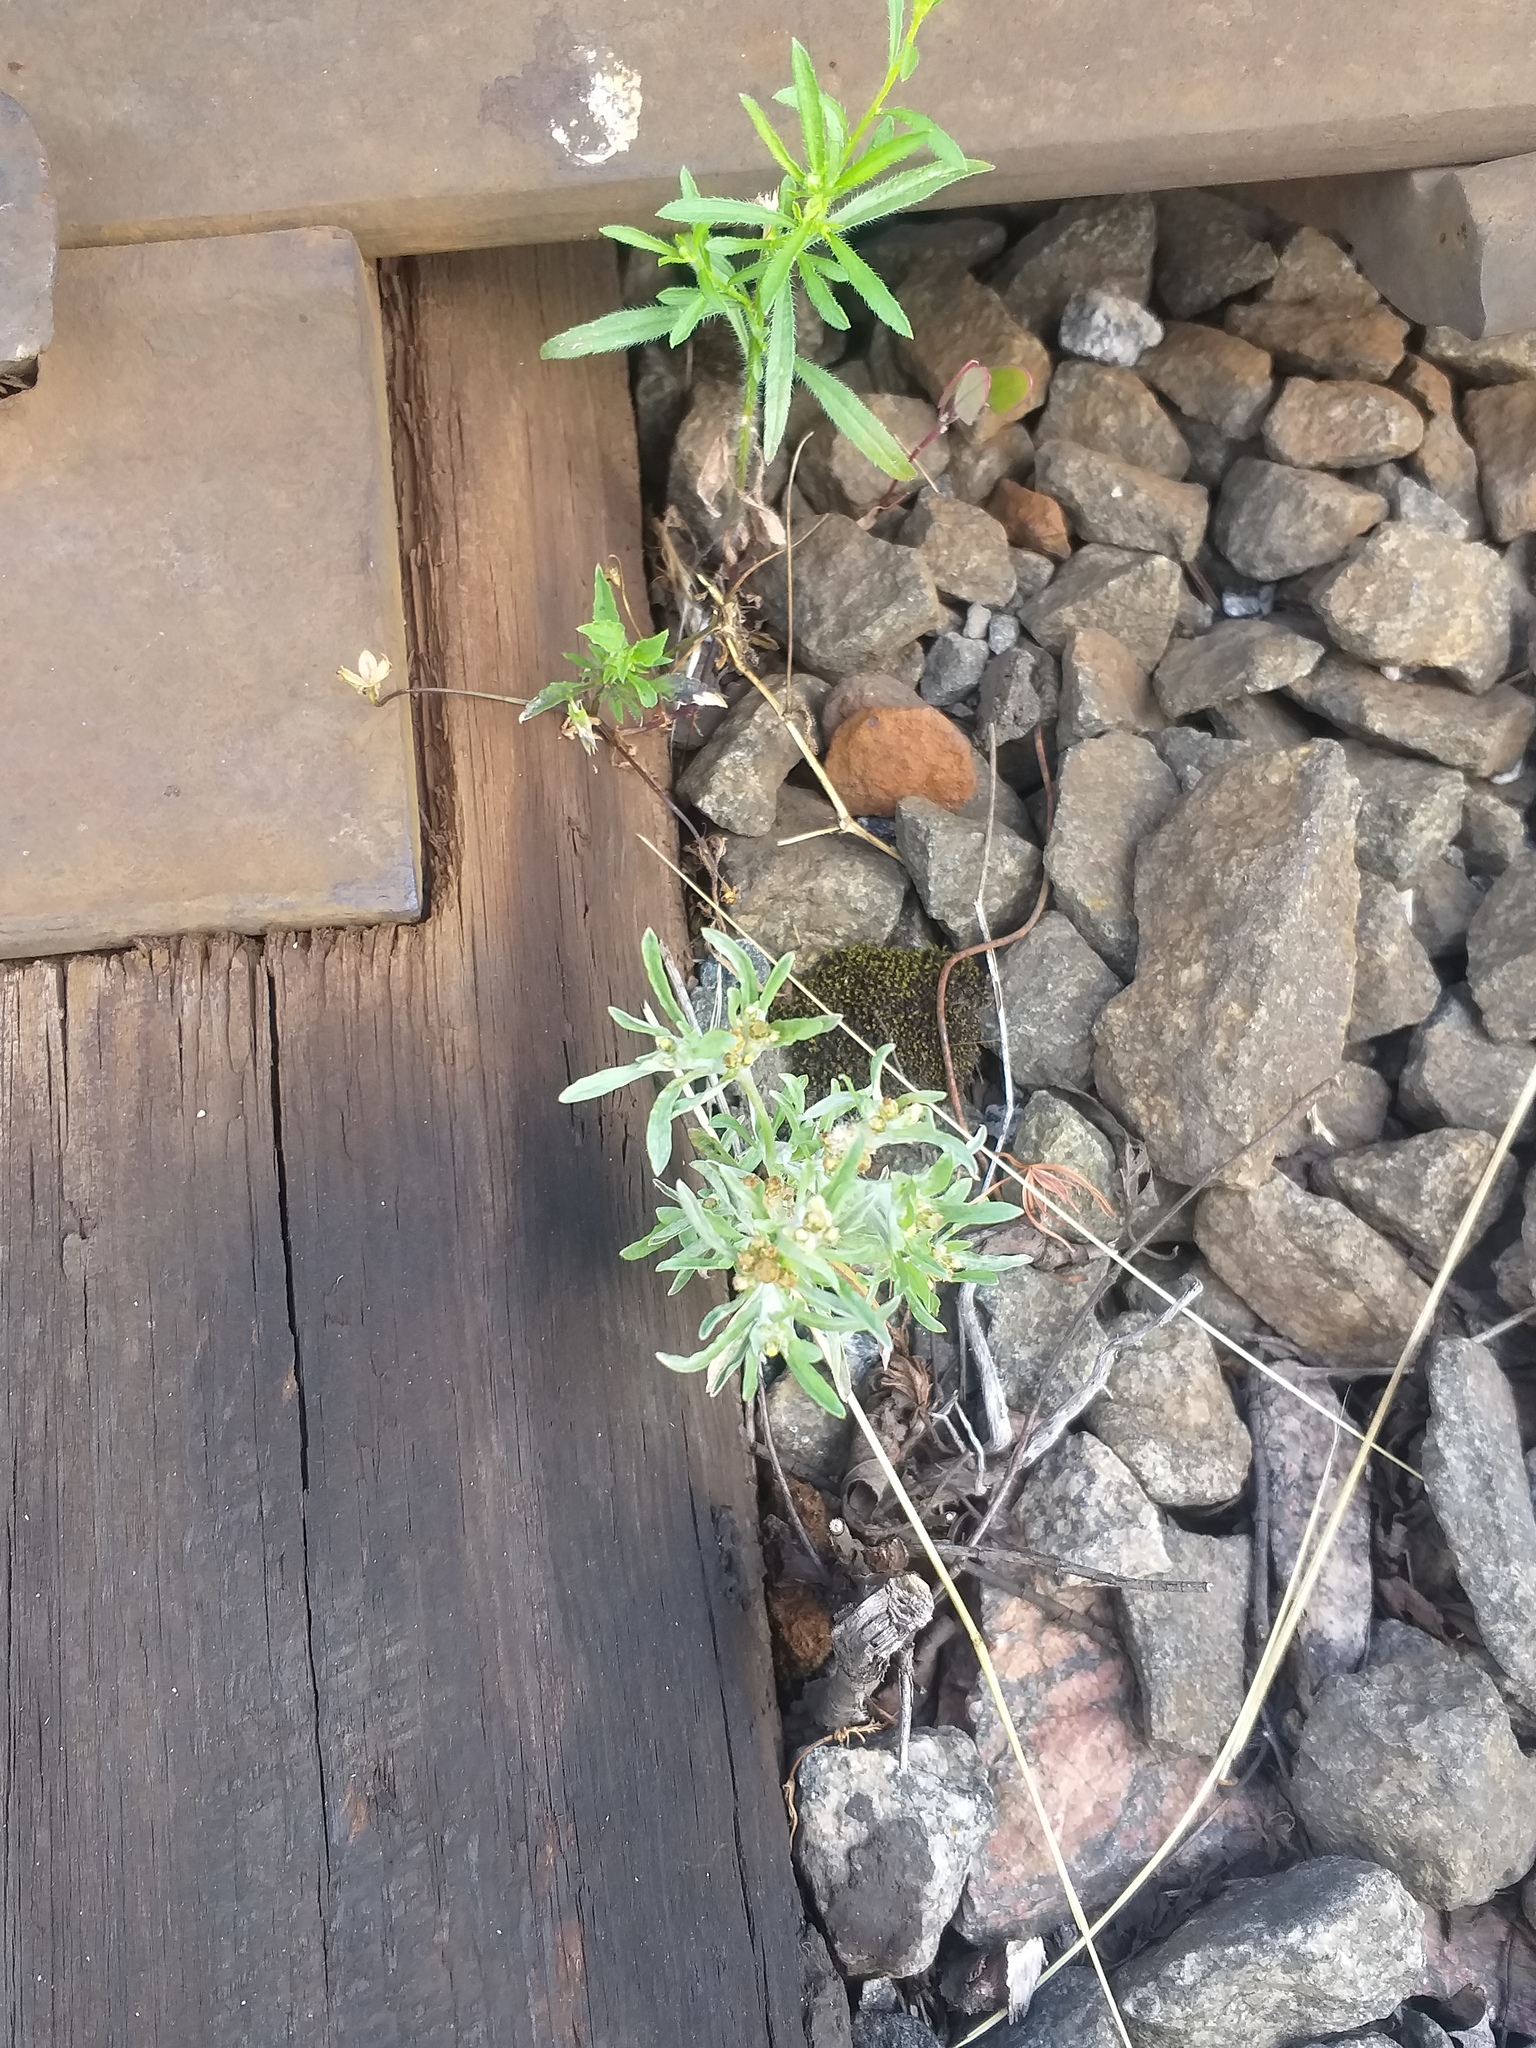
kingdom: Plantae
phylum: Tracheophyta
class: Magnoliopsida
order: Asterales
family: Asteraceae
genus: Gnaphalium
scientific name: Gnaphalium uliginosum
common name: Marsh cudweed
